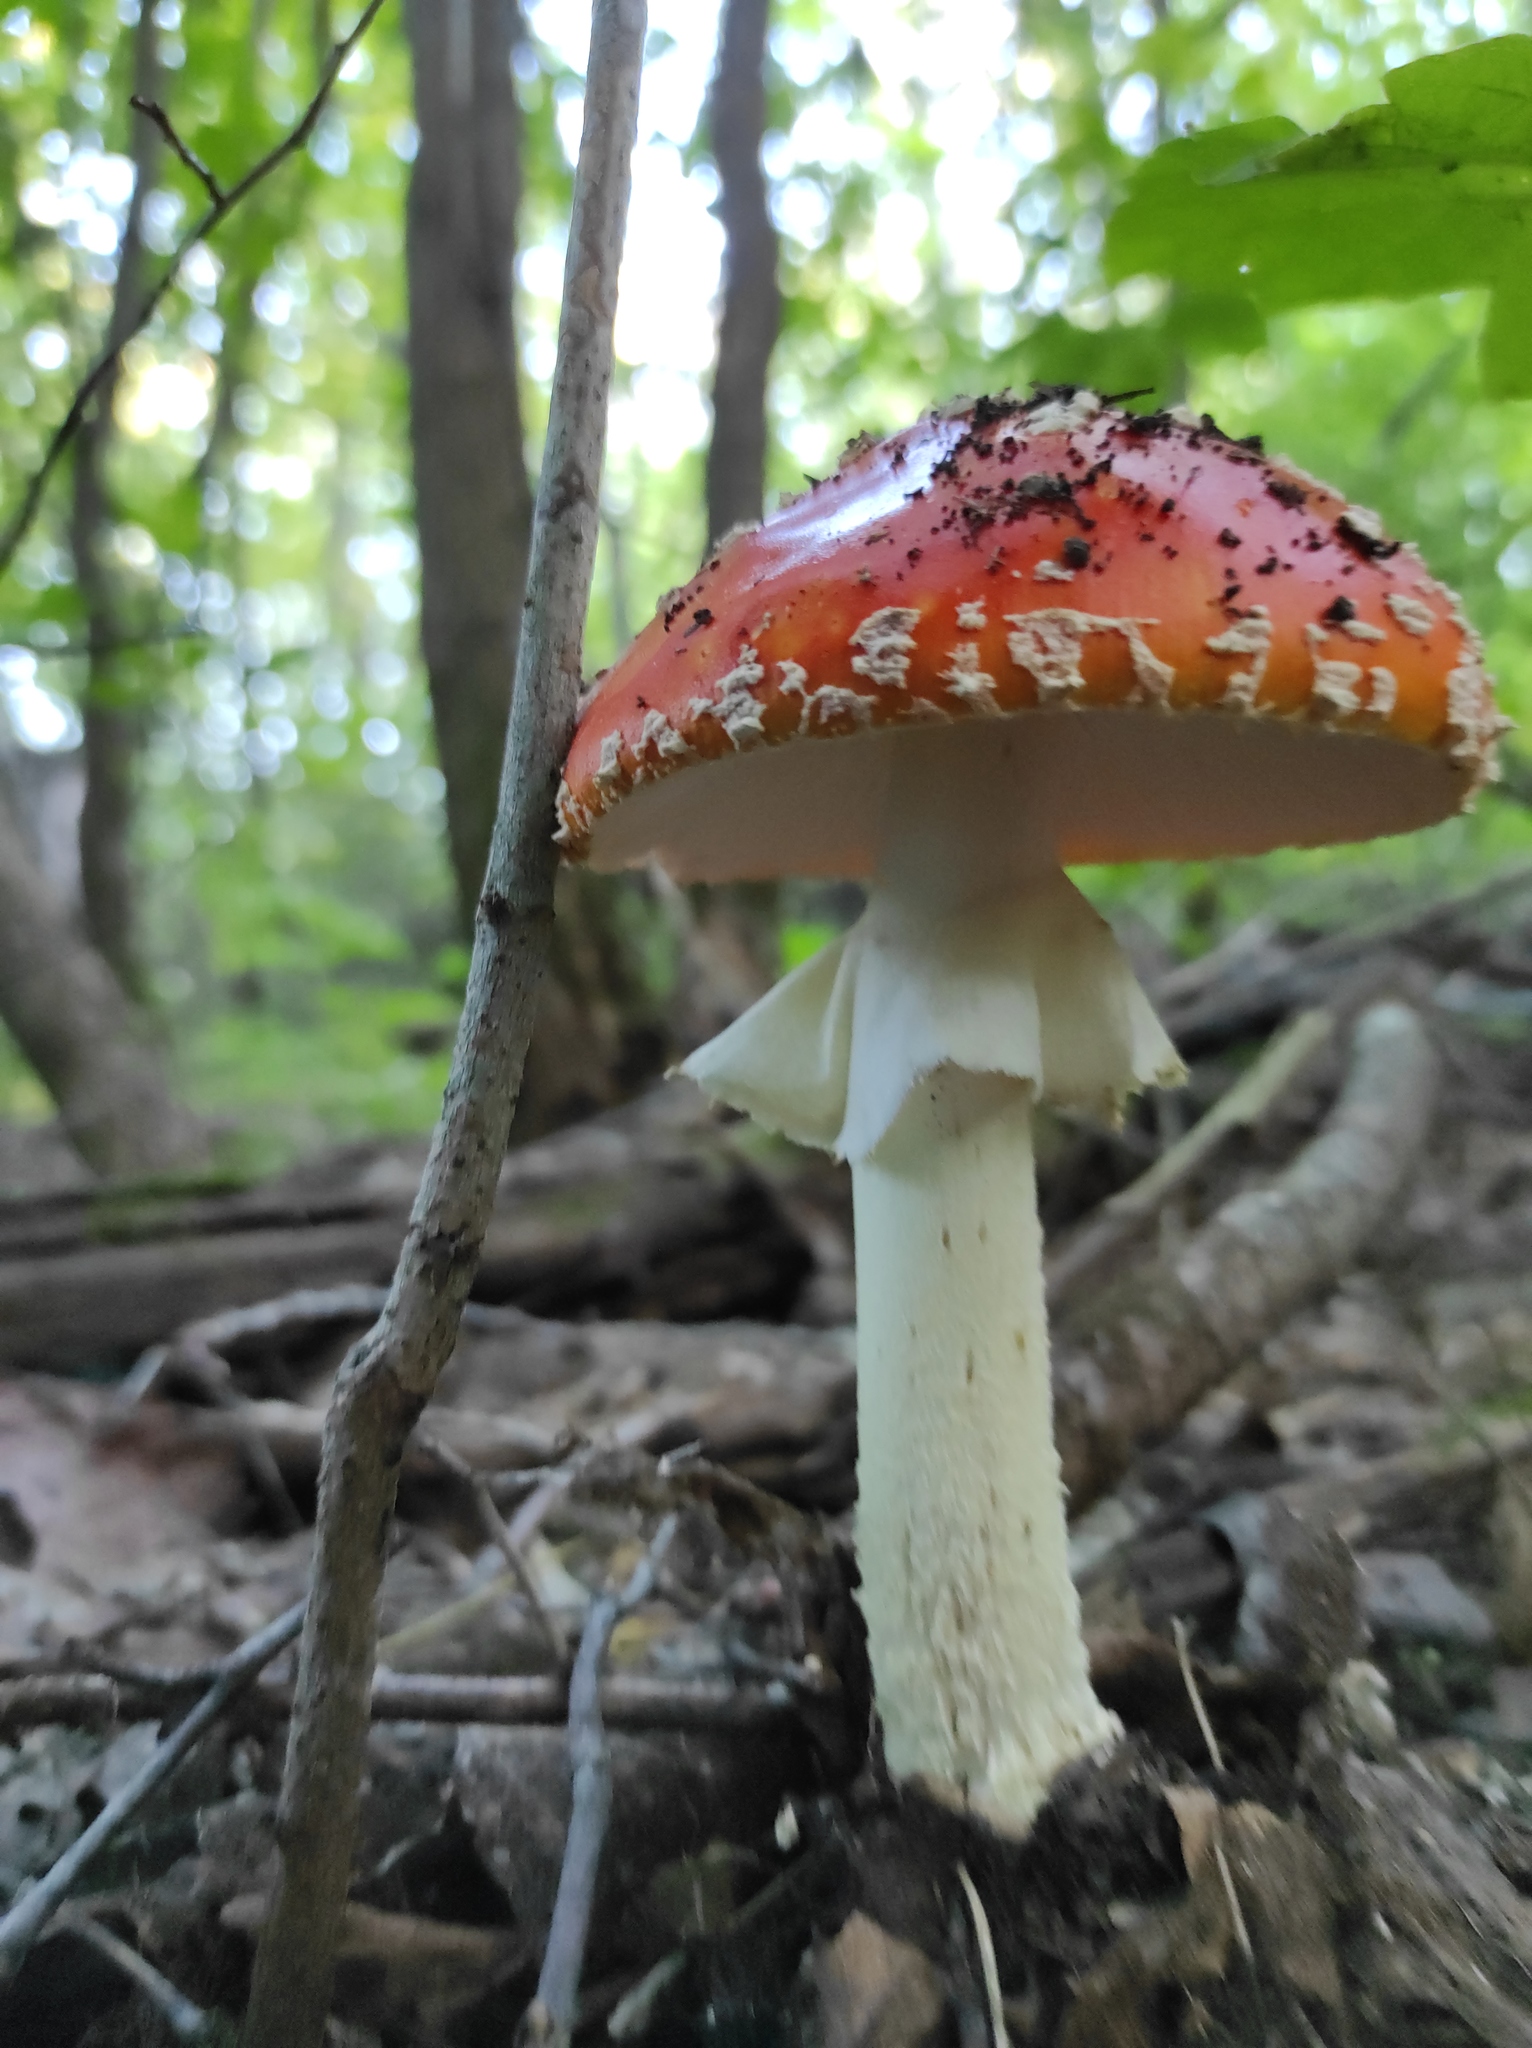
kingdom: Fungi
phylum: Basidiomycota
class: Agaricomycetes
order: Agaricales
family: Amanitaceae
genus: Amanita
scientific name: Amanita muscaria
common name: Fly agaric
